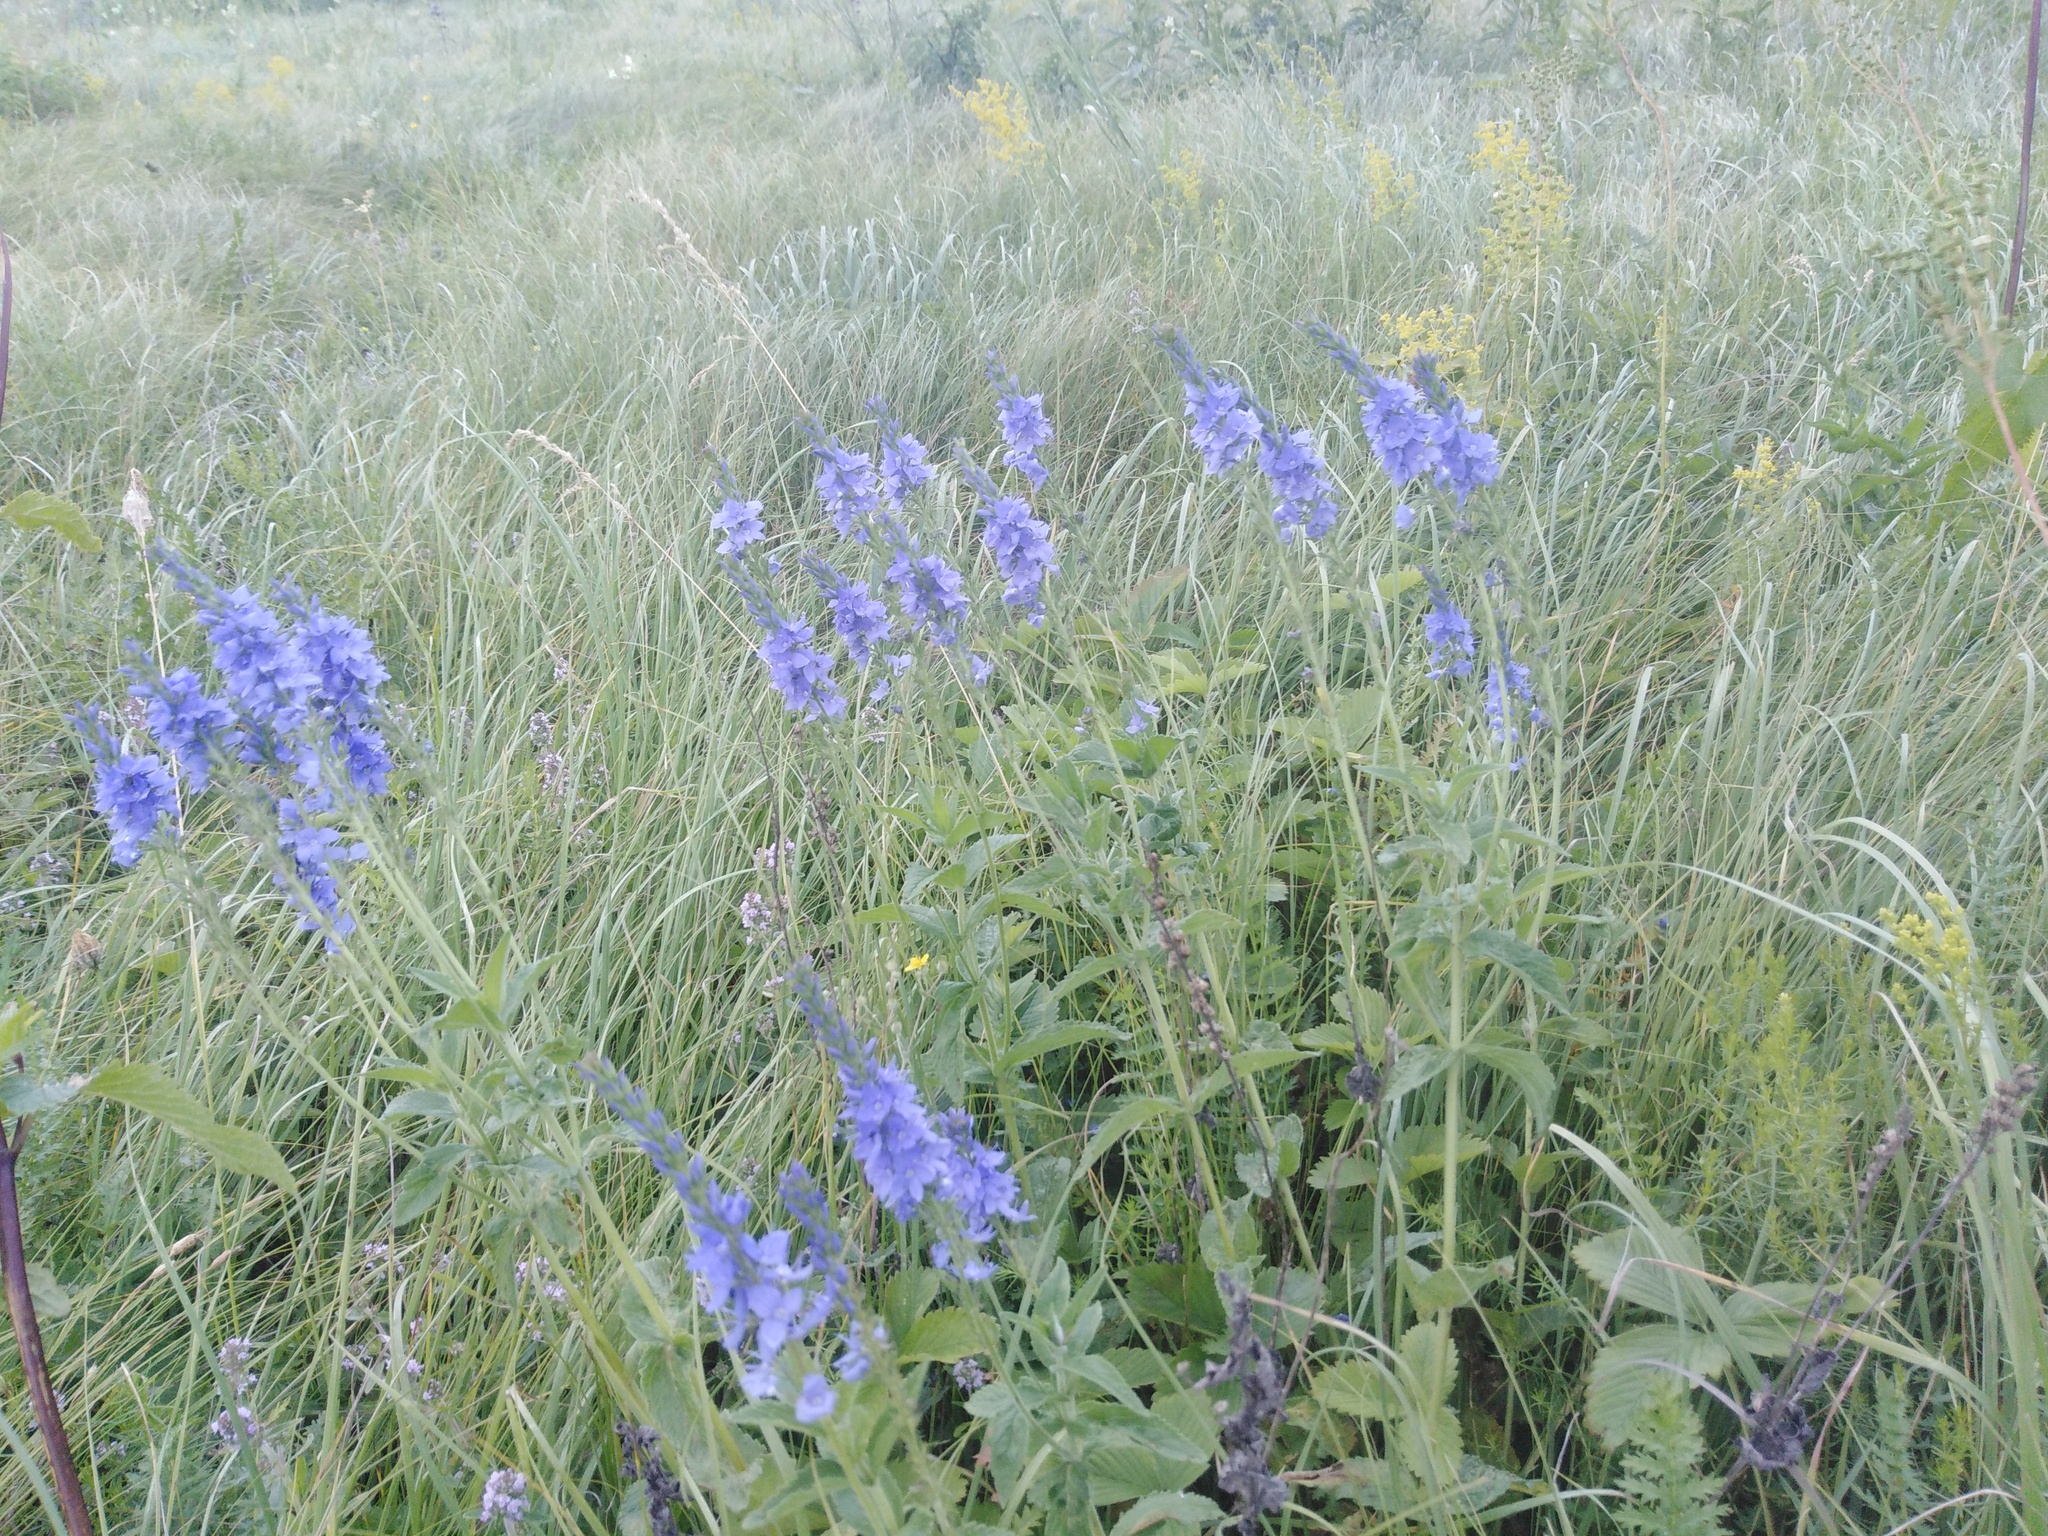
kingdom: Plantae
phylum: Tracheophyta
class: Magnoliopsida
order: Lamiales
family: Plantaginaceae
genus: Veronica
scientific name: Veronica teucrium
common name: Large speedwell
